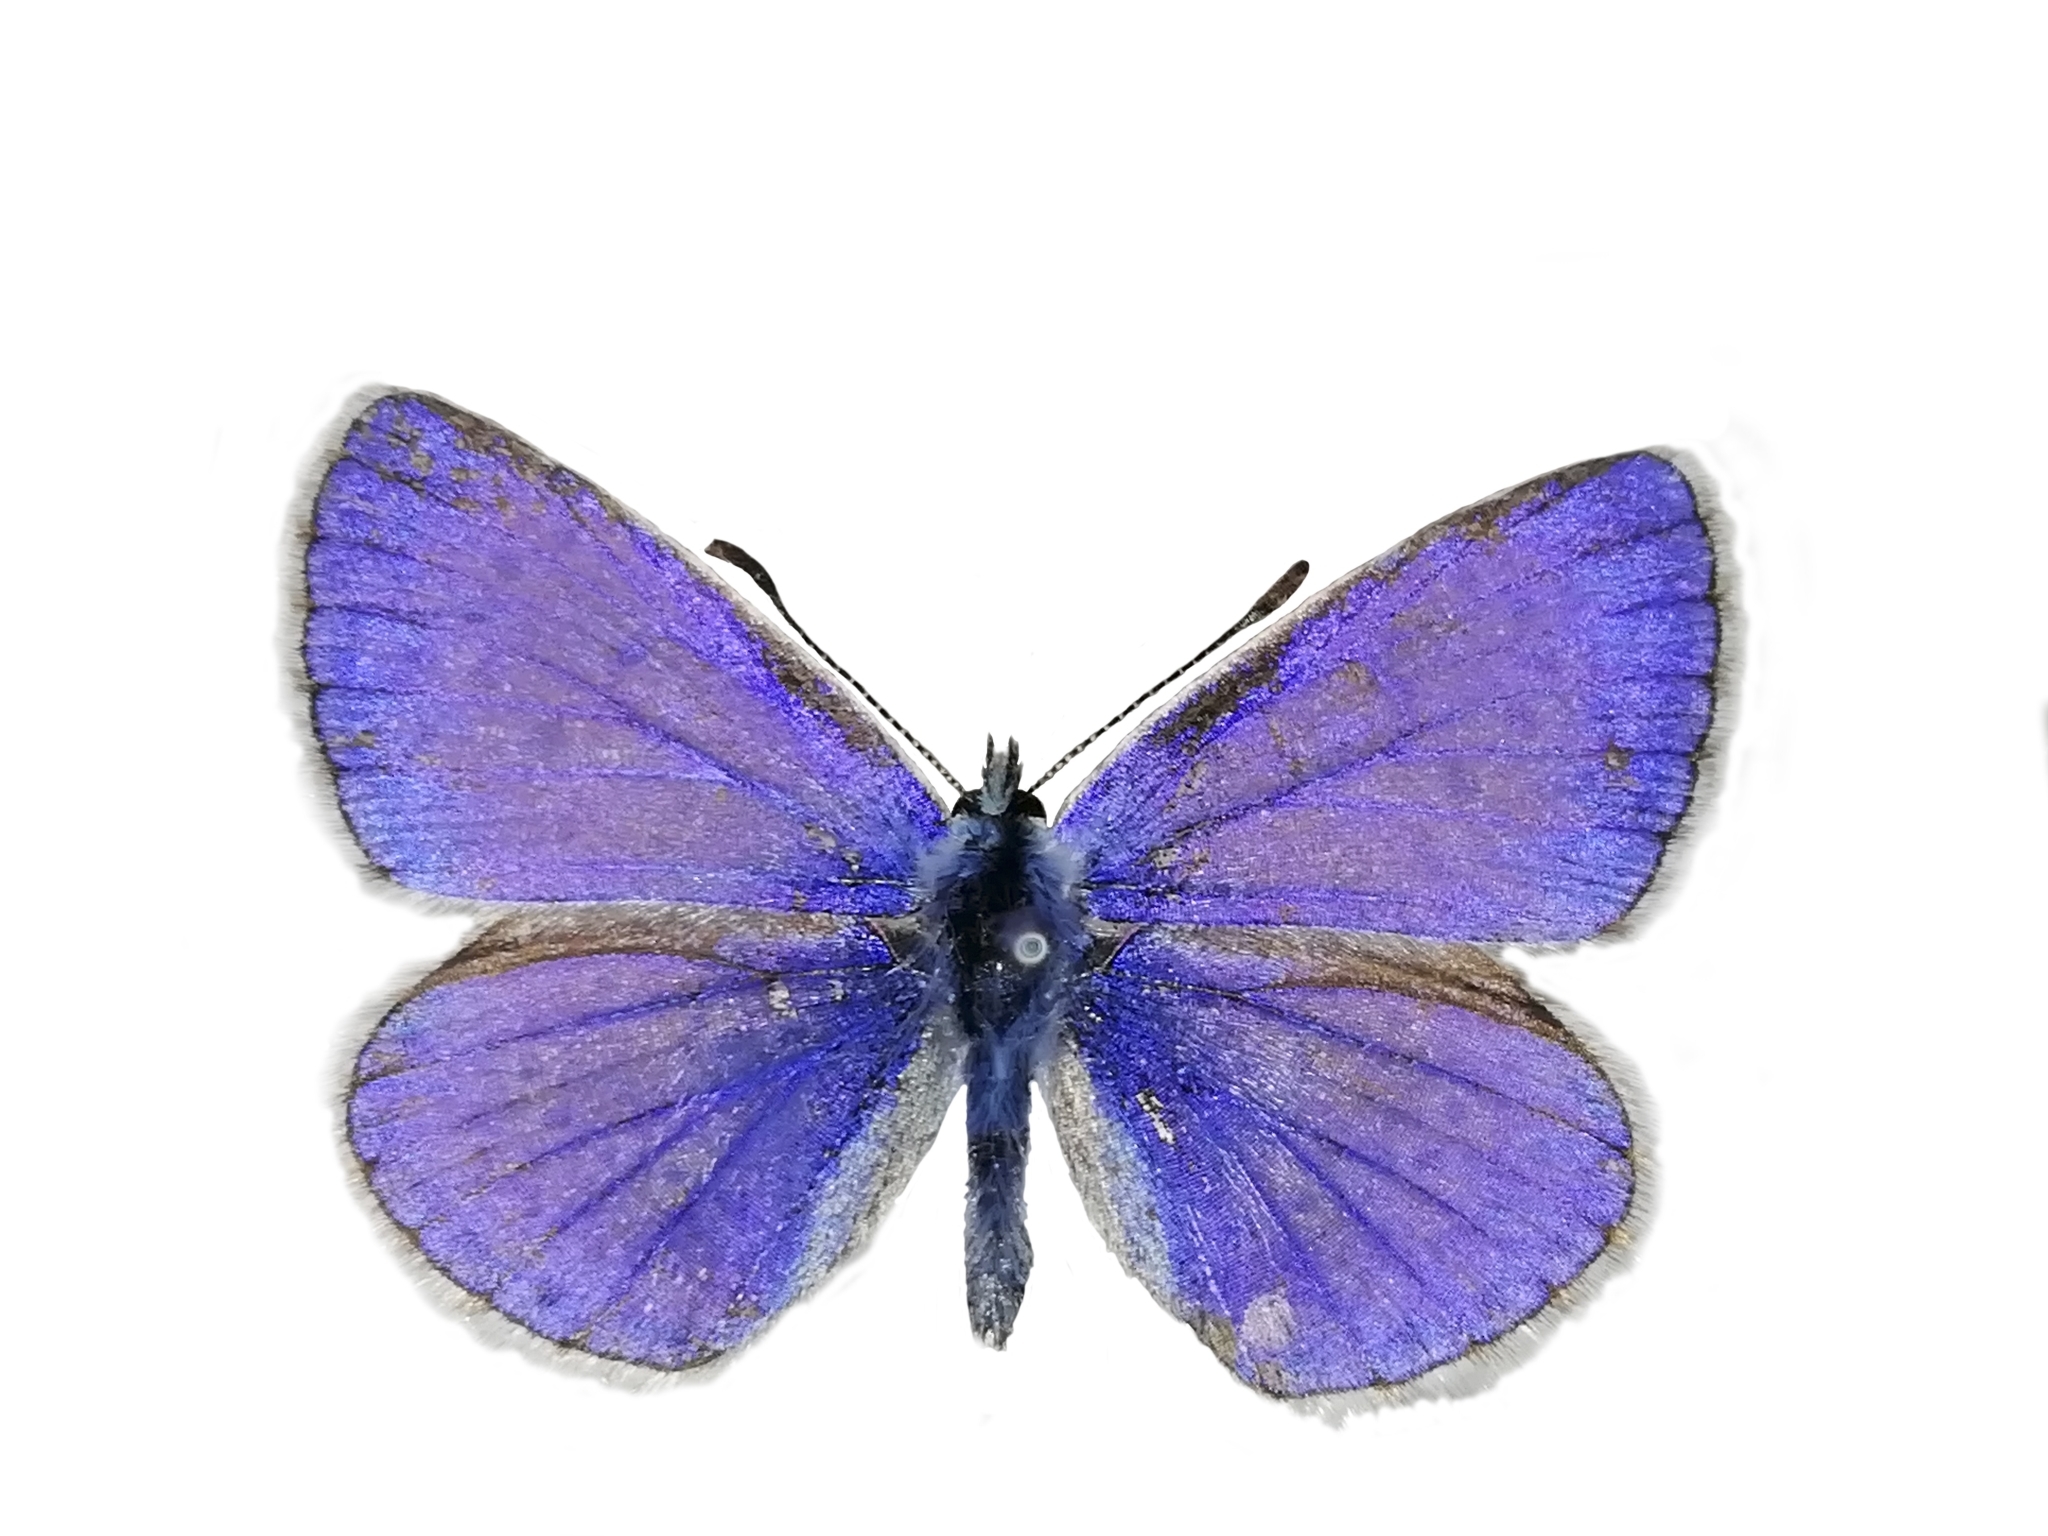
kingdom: Animalia
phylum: Arthropoda
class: Insecta
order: Lepidoptera
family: Lycaenidae
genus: Polyommatus
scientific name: Polyommatus icarus
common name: Common blue
